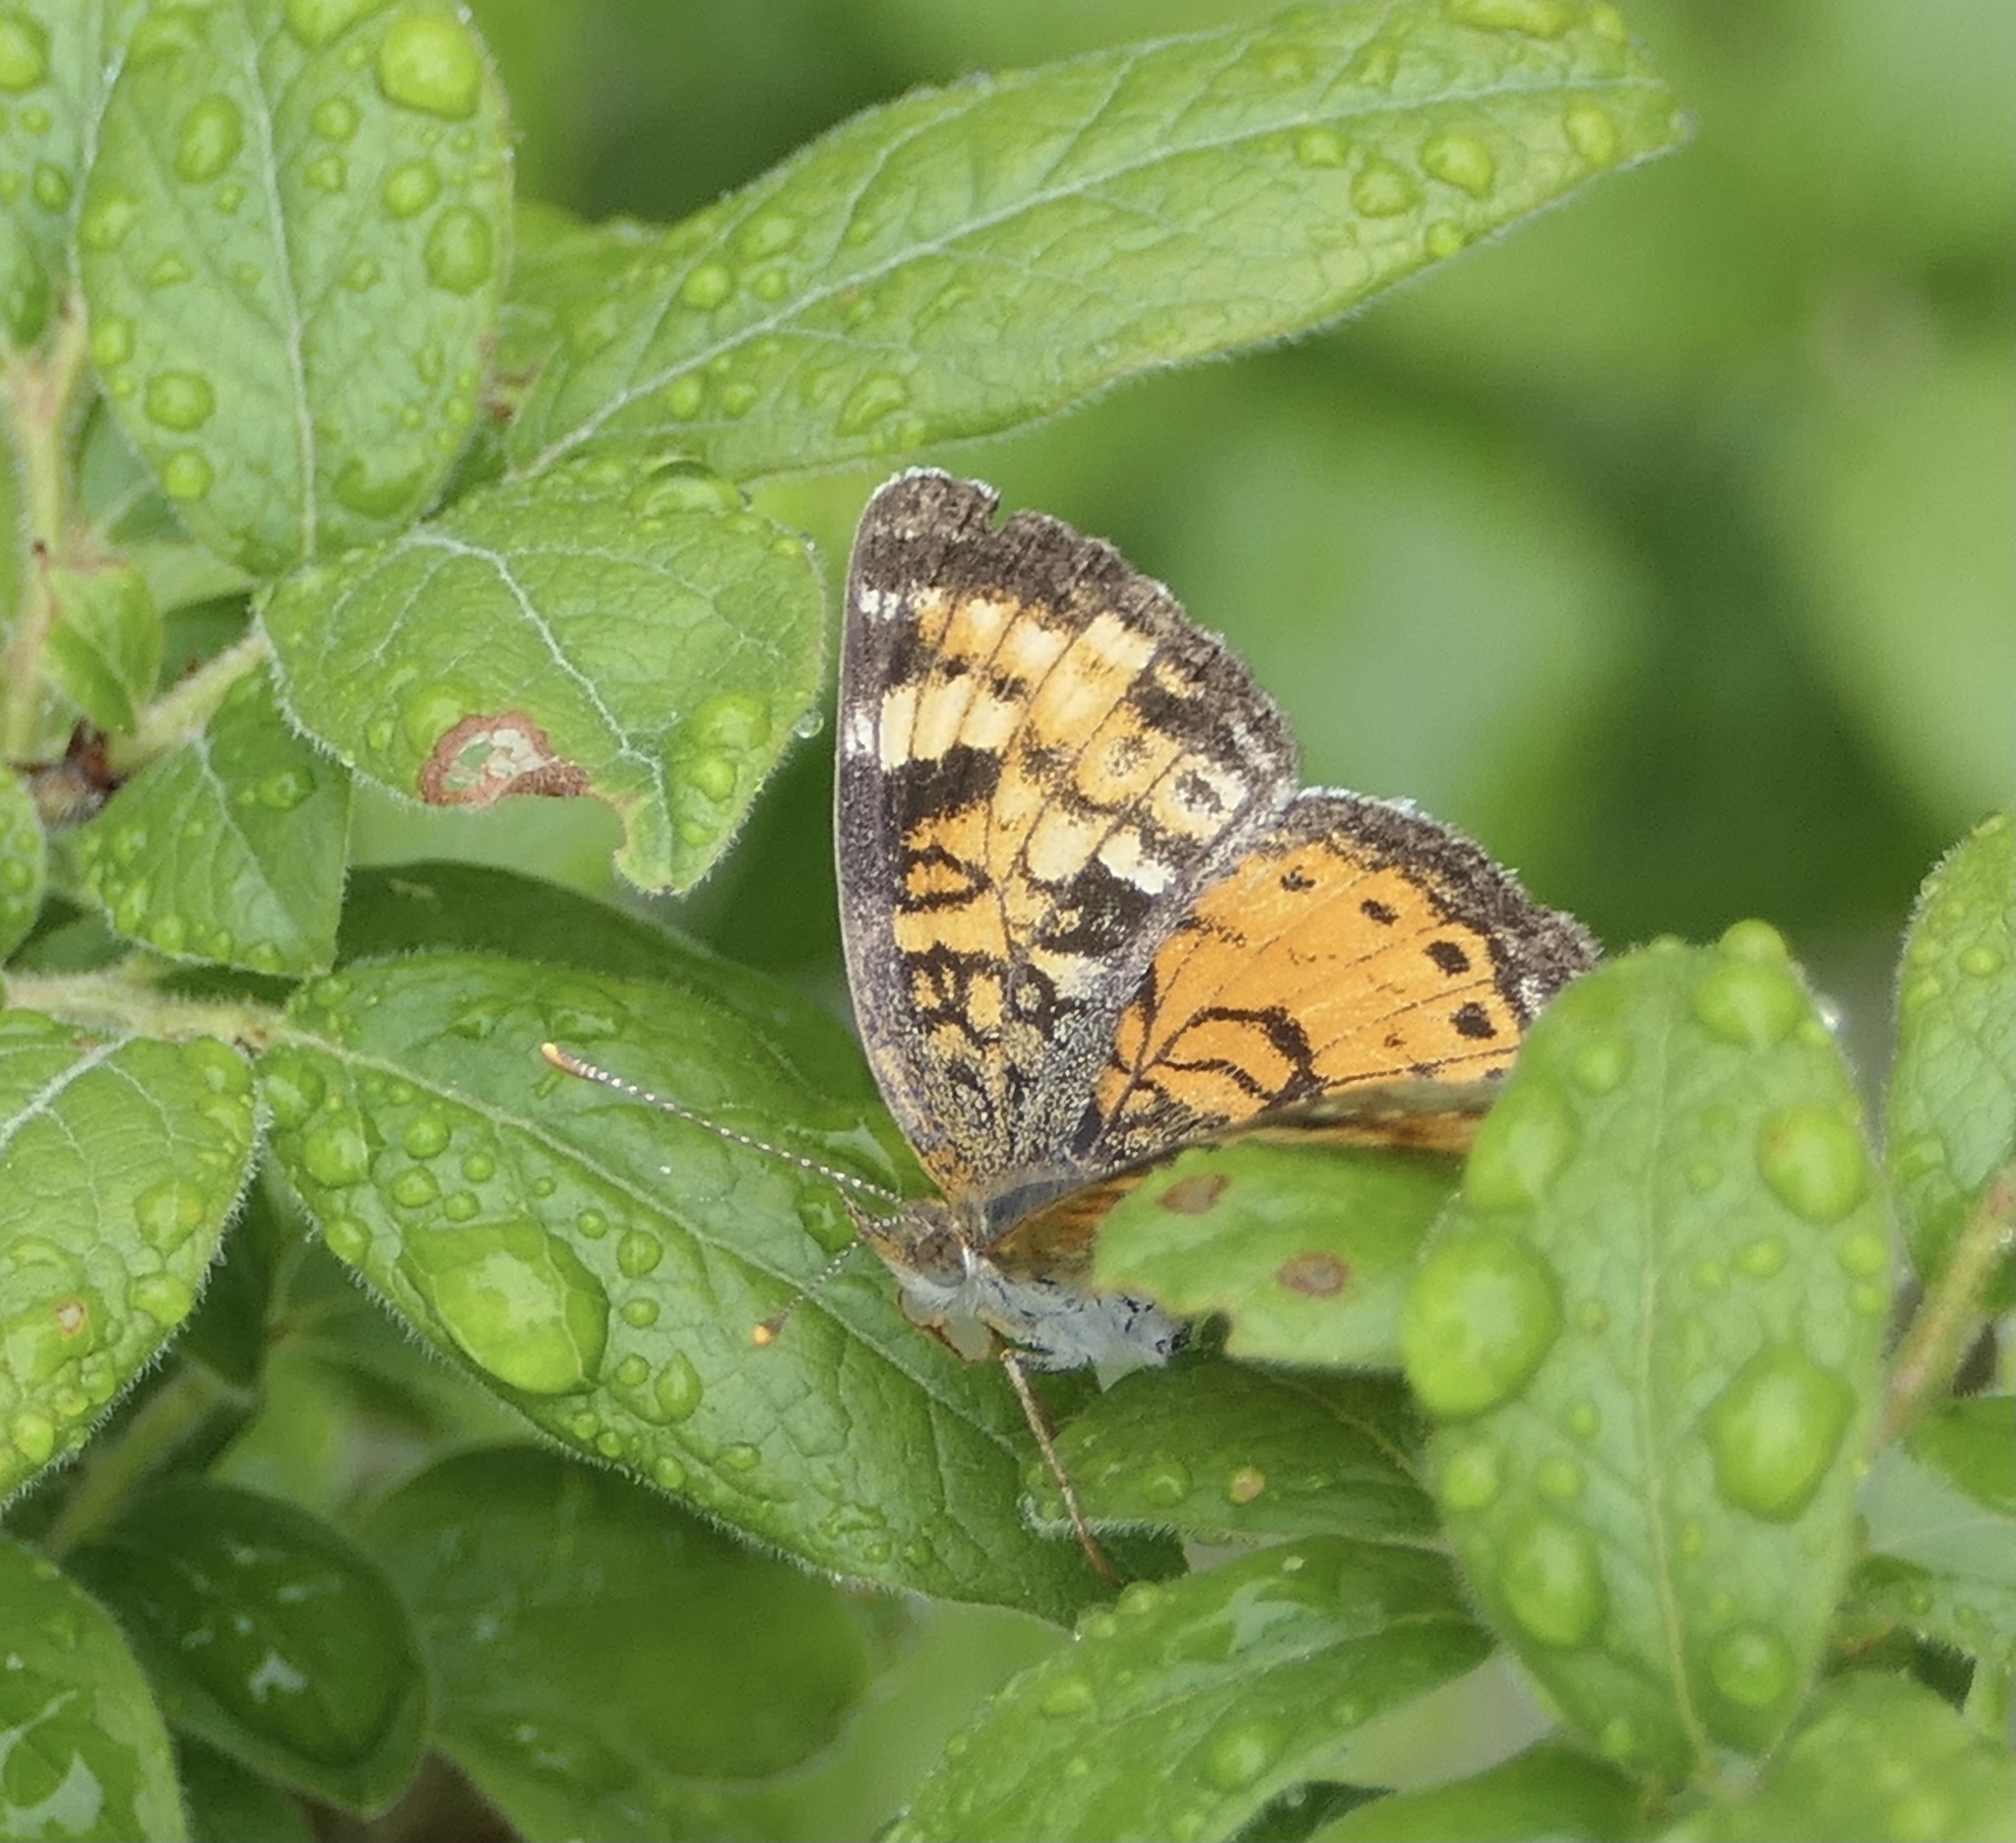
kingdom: Animalia
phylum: Arthropoda
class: Insecta
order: Lepidoptera
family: Nymphalidae
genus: Phyciodes
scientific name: Phyciodes tharos
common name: Pearl crescent
